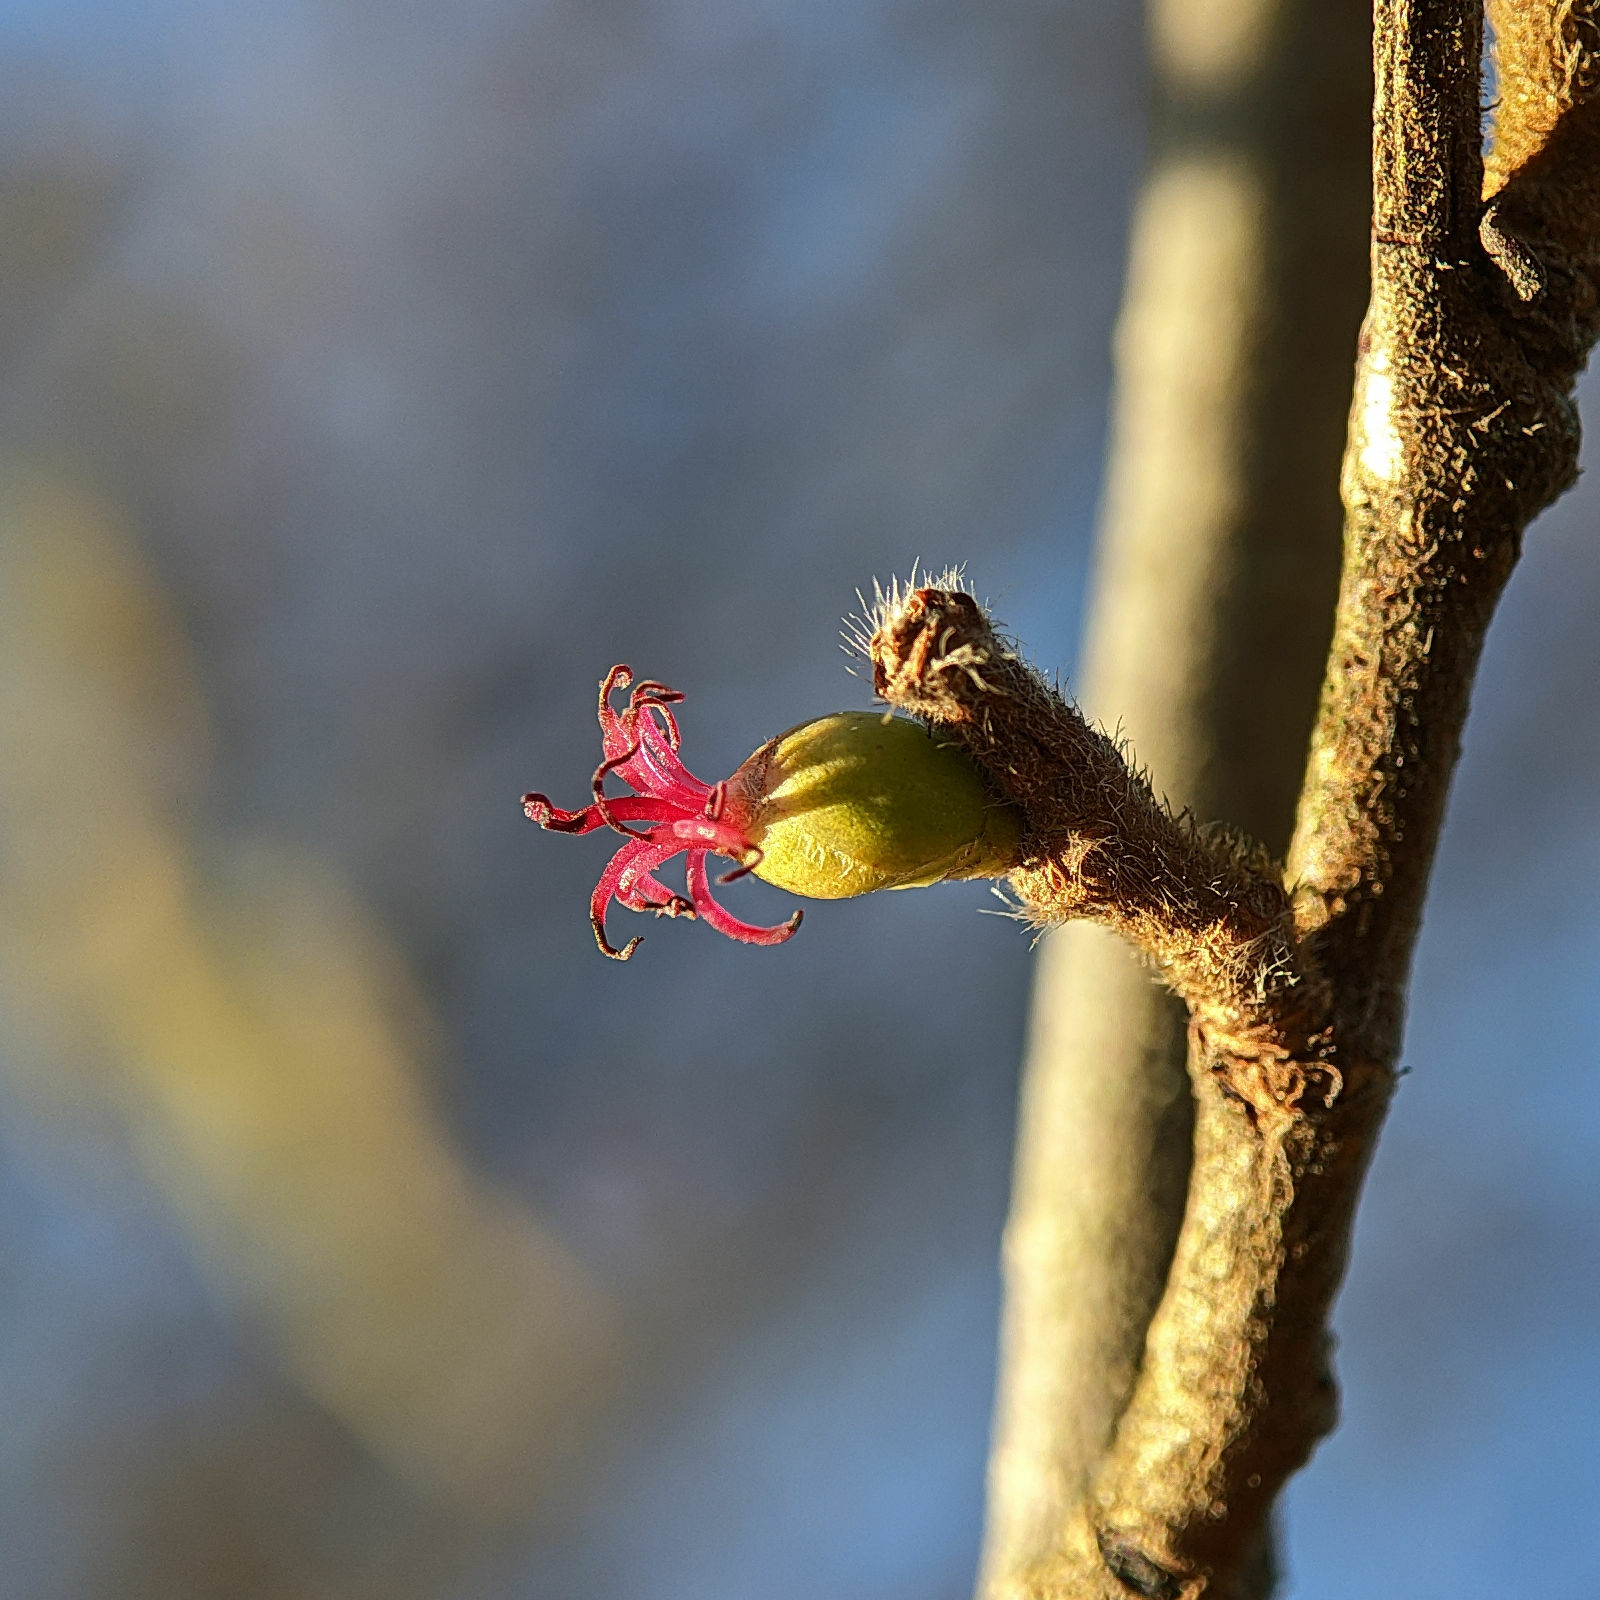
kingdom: Plantae
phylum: Tracheophyta
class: Magnoliopsida
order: Fagales
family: Betulaceae
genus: Corylus
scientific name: Corylus avellana
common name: European hazel
